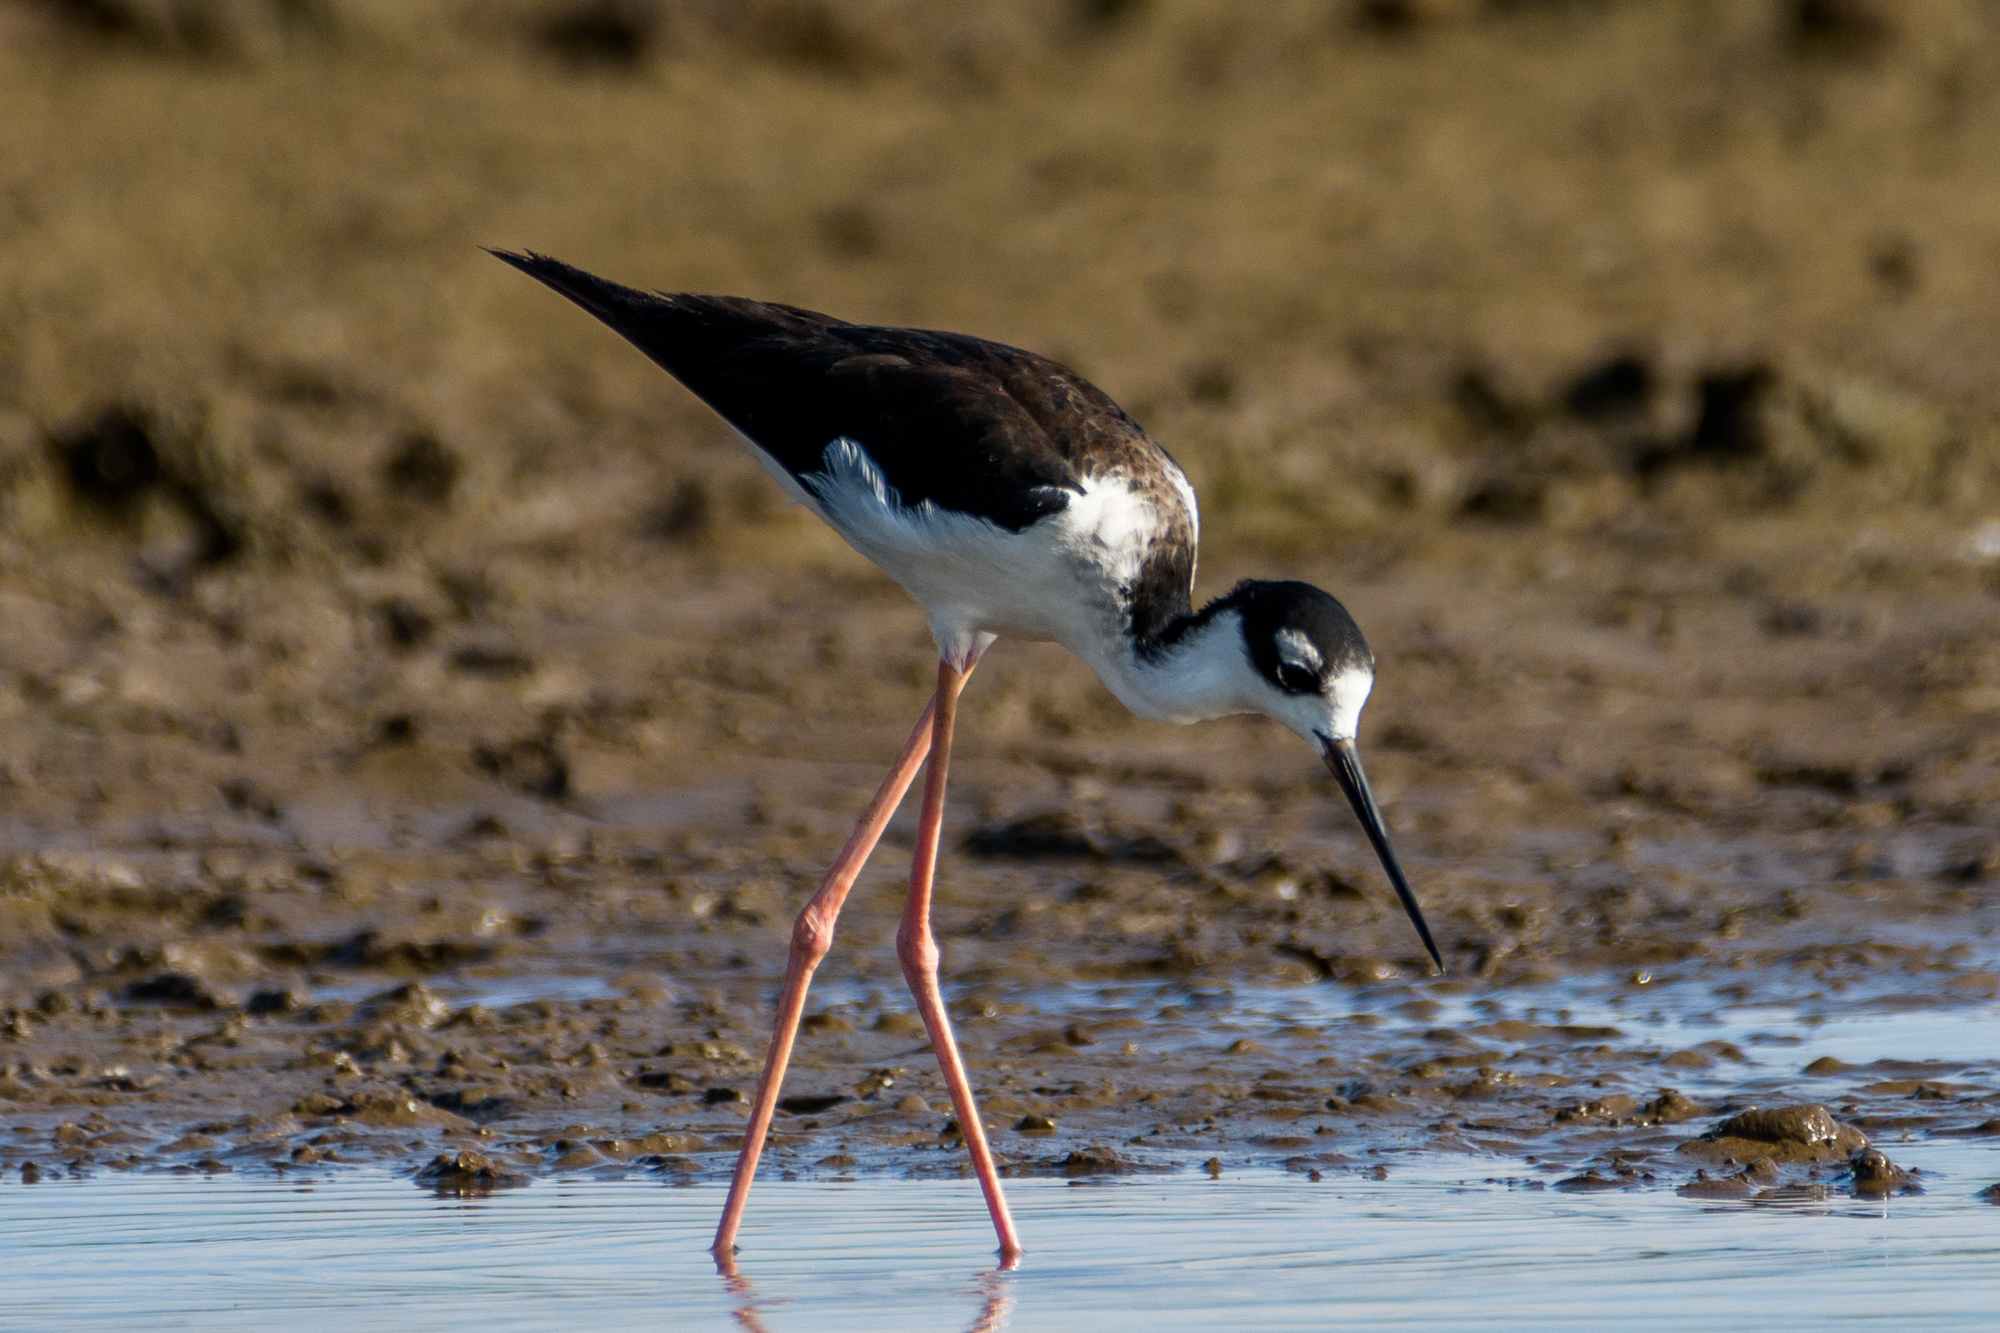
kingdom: Animalia
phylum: Chordata
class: Aves
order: Charadriiformes
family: Recurvirostridae
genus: Himantopus
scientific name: Himantopus mexicanus
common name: Black-necked stilt
